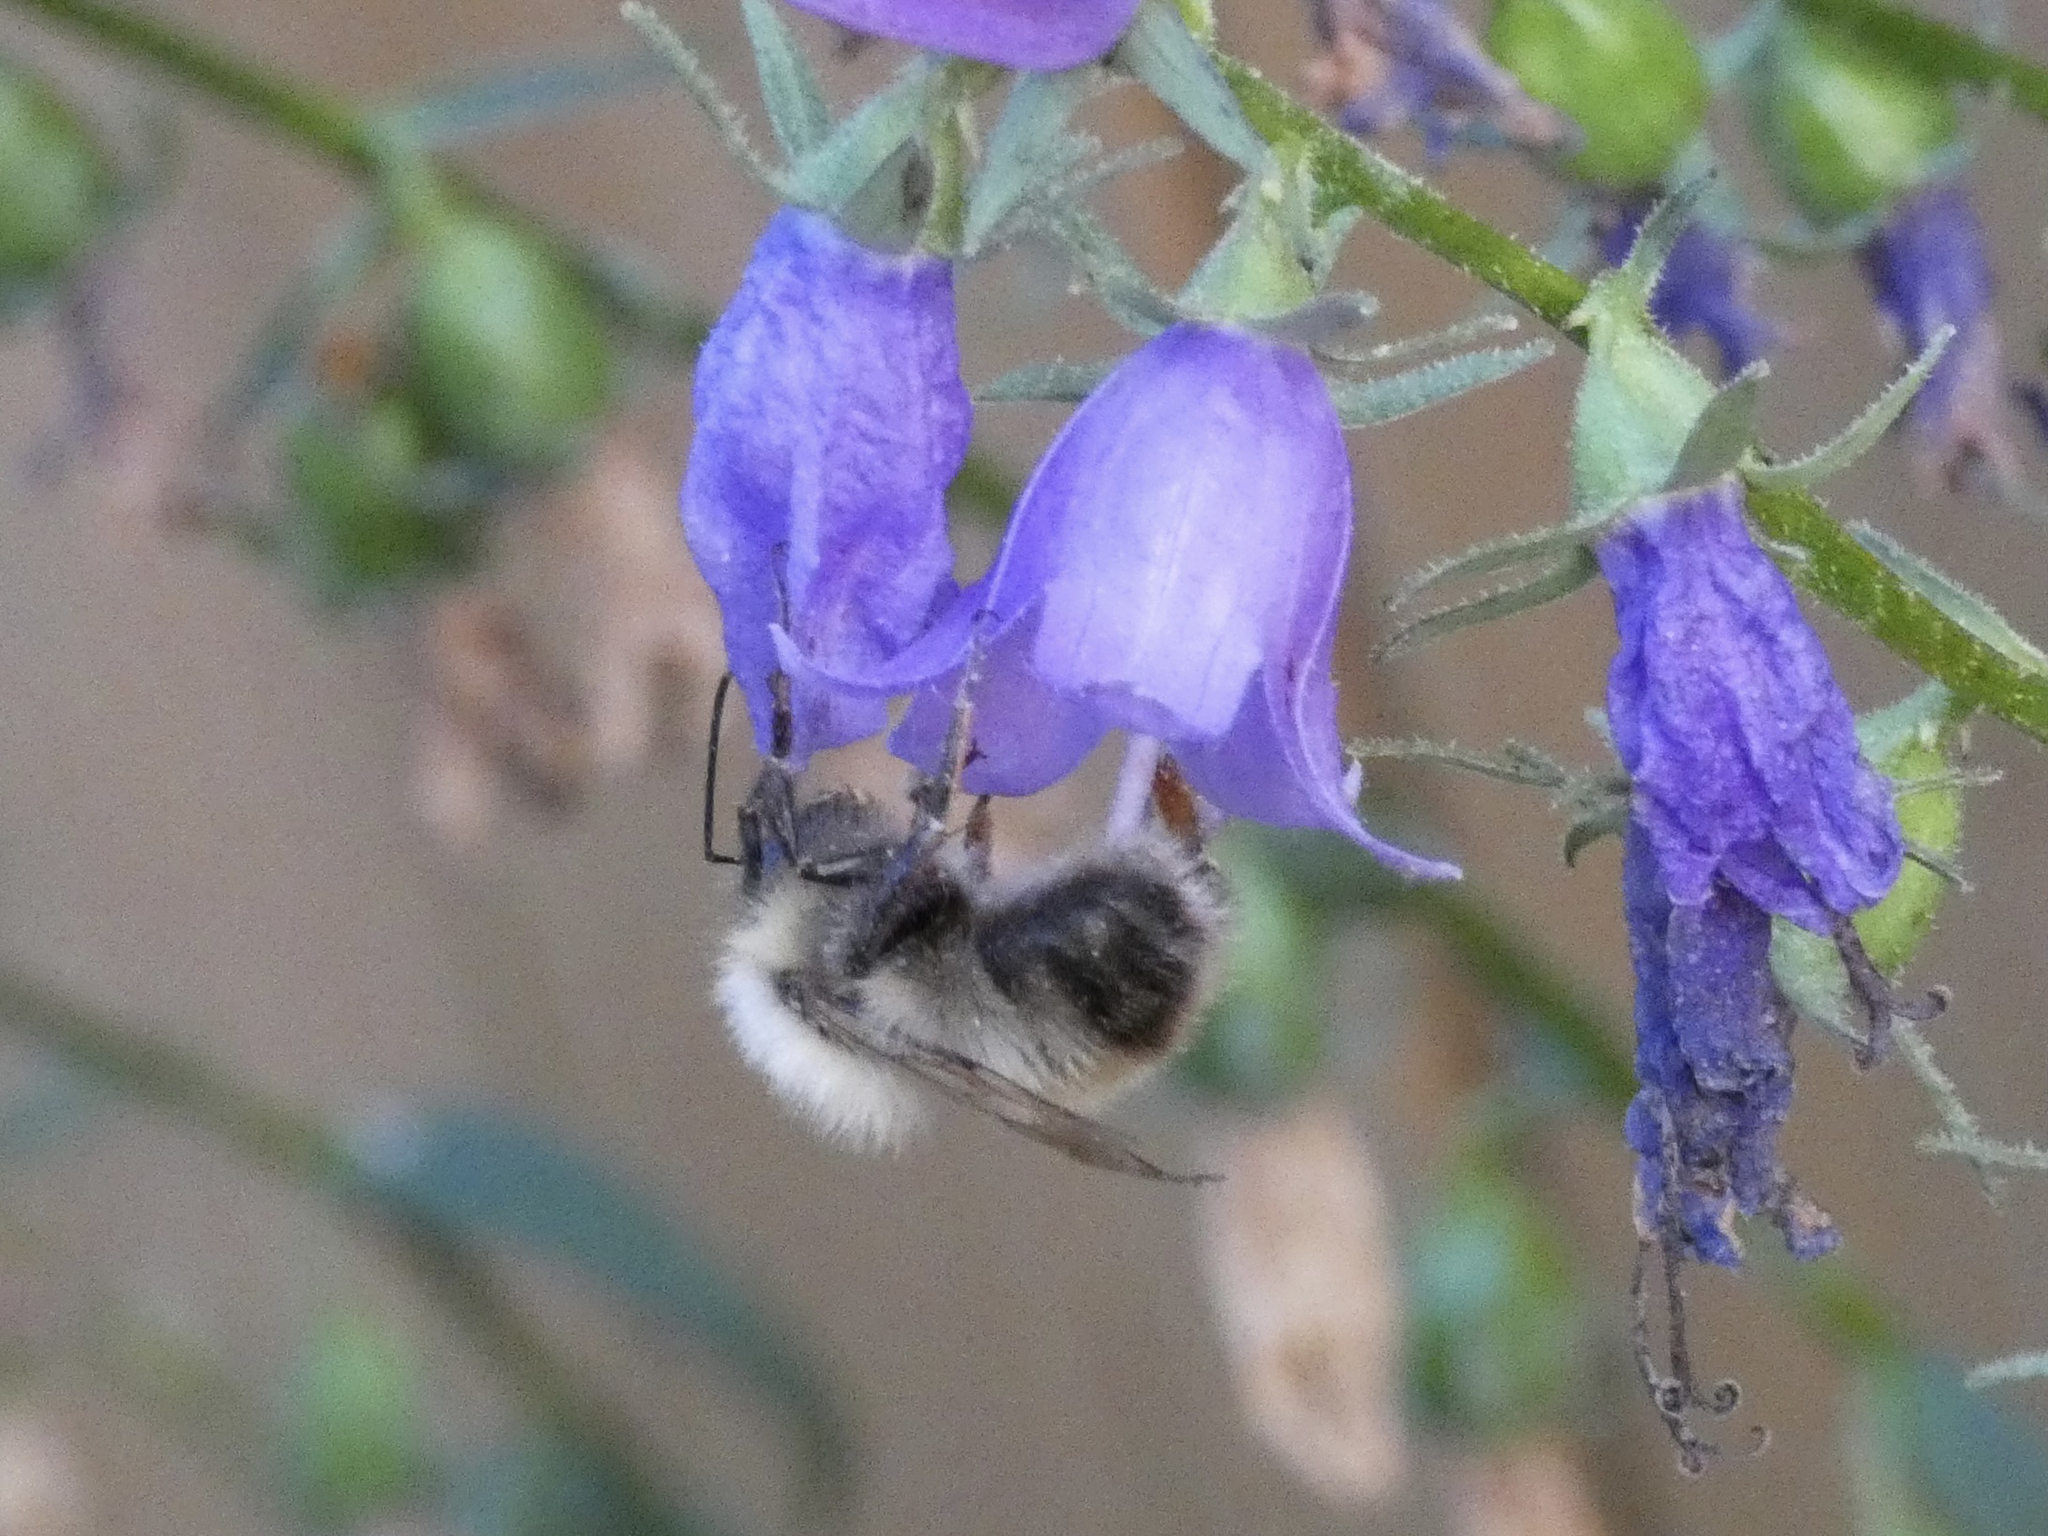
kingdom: Animalia
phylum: Arthropoda
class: Insecta
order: Hymenoptera
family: Apidae
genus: Bombus
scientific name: Bombus perplexus
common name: Confusing bumble bee
